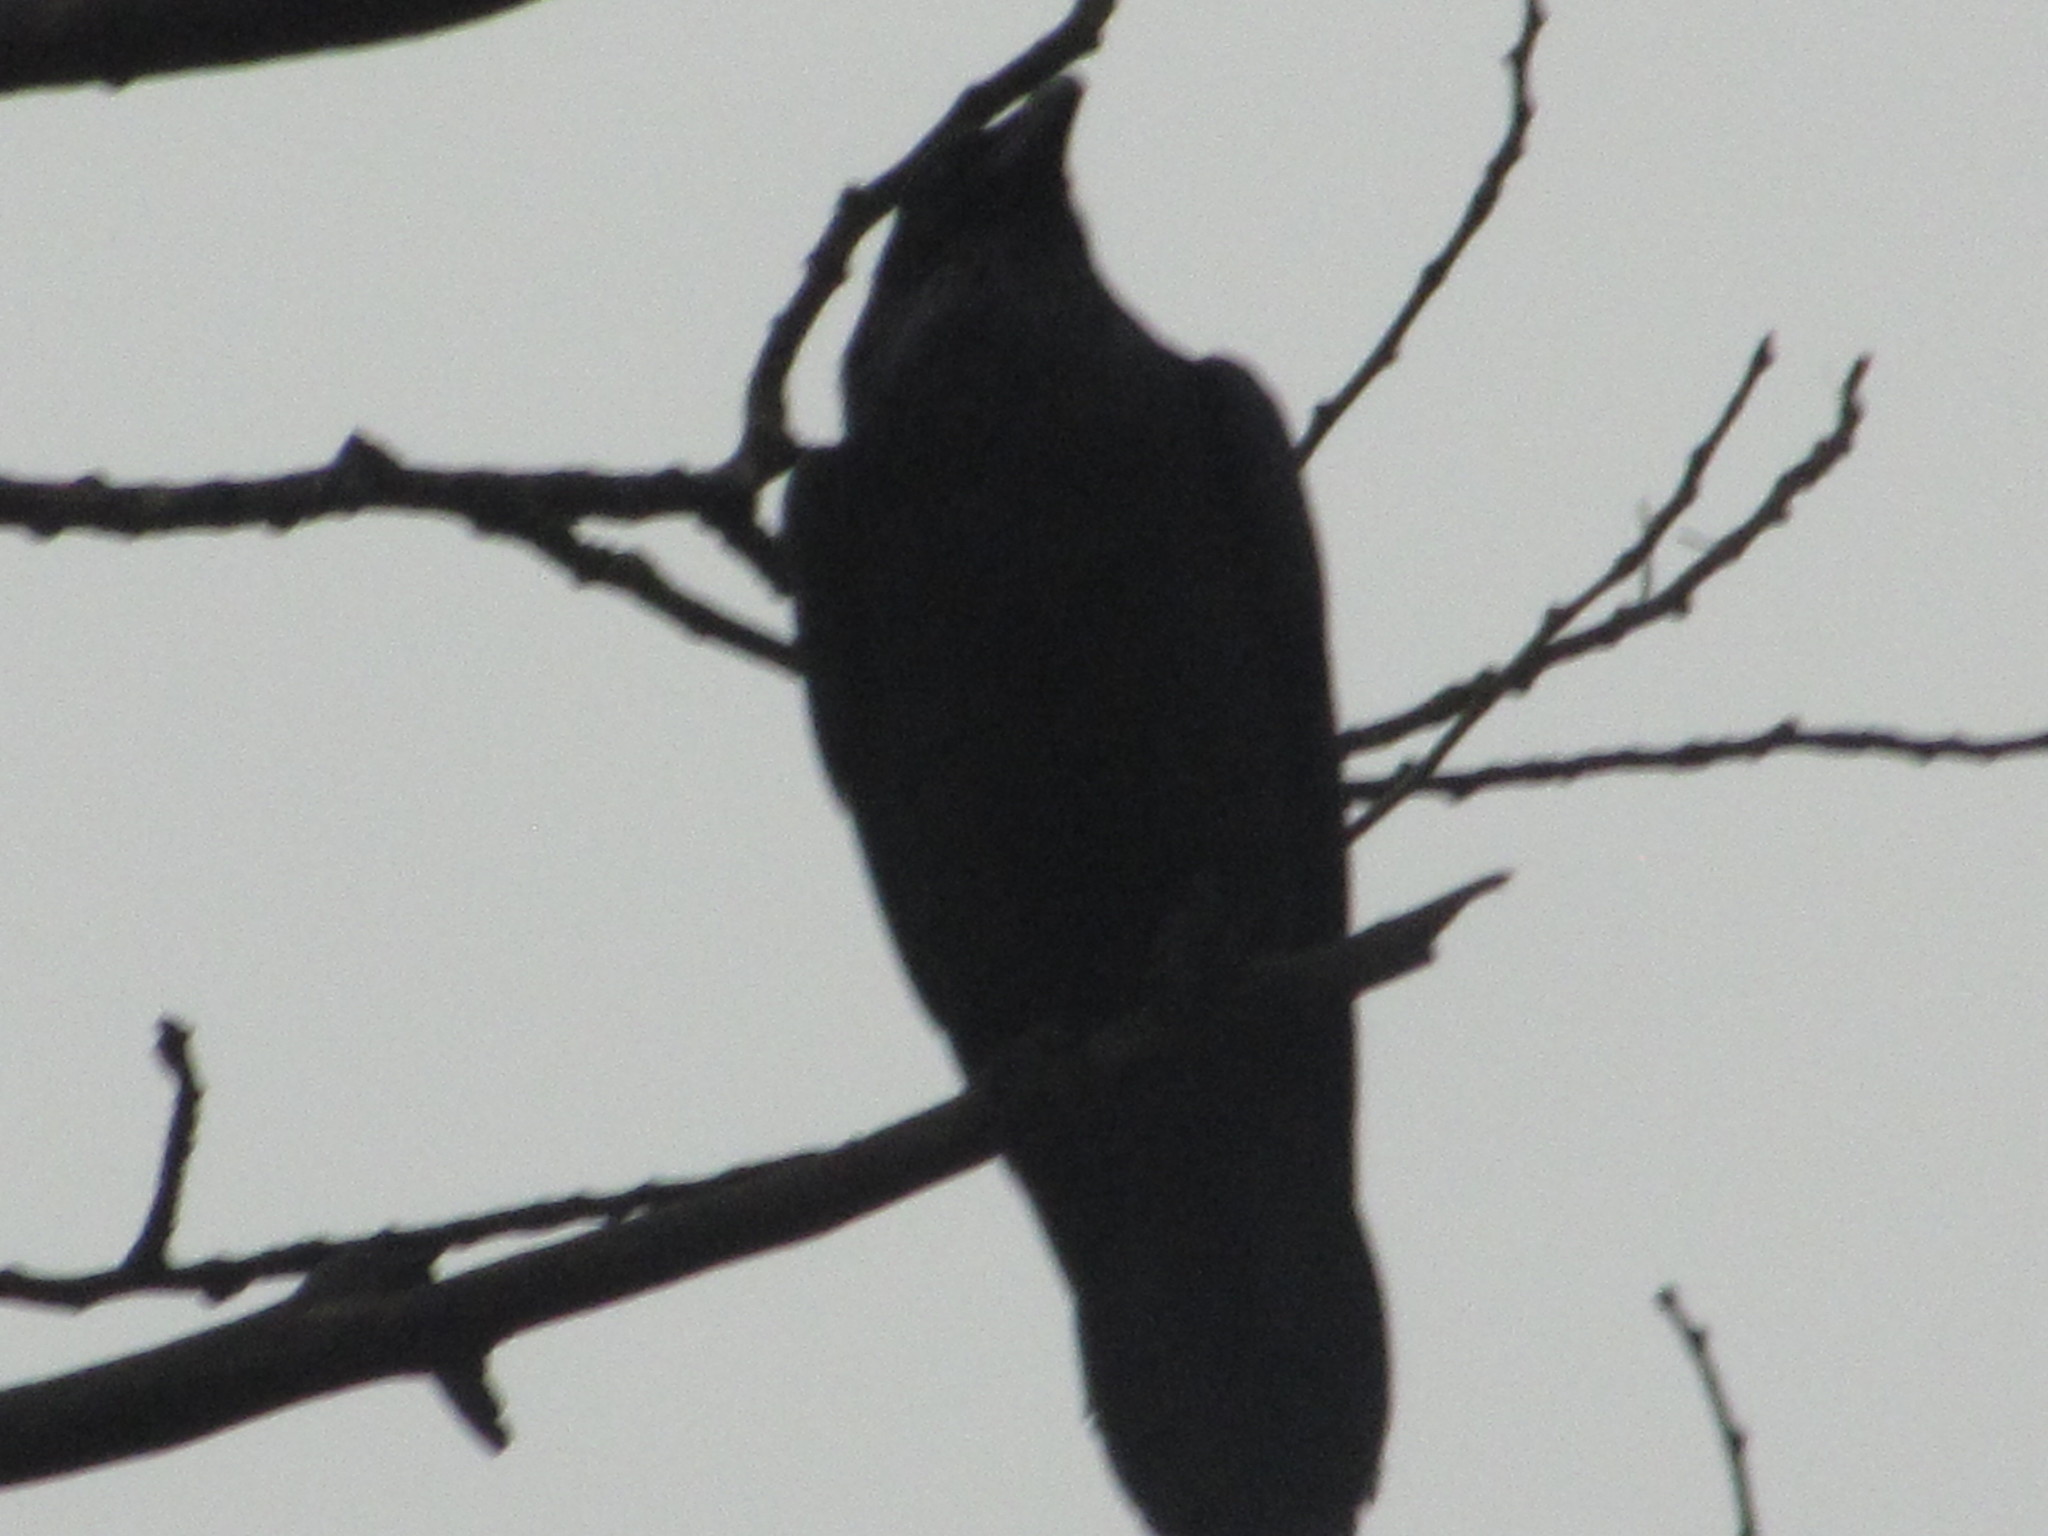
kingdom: Animalia
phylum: Chordata
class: Aves
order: Passeriformes
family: Corvidae
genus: Corvus
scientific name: Corvus corax
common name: Common raven
